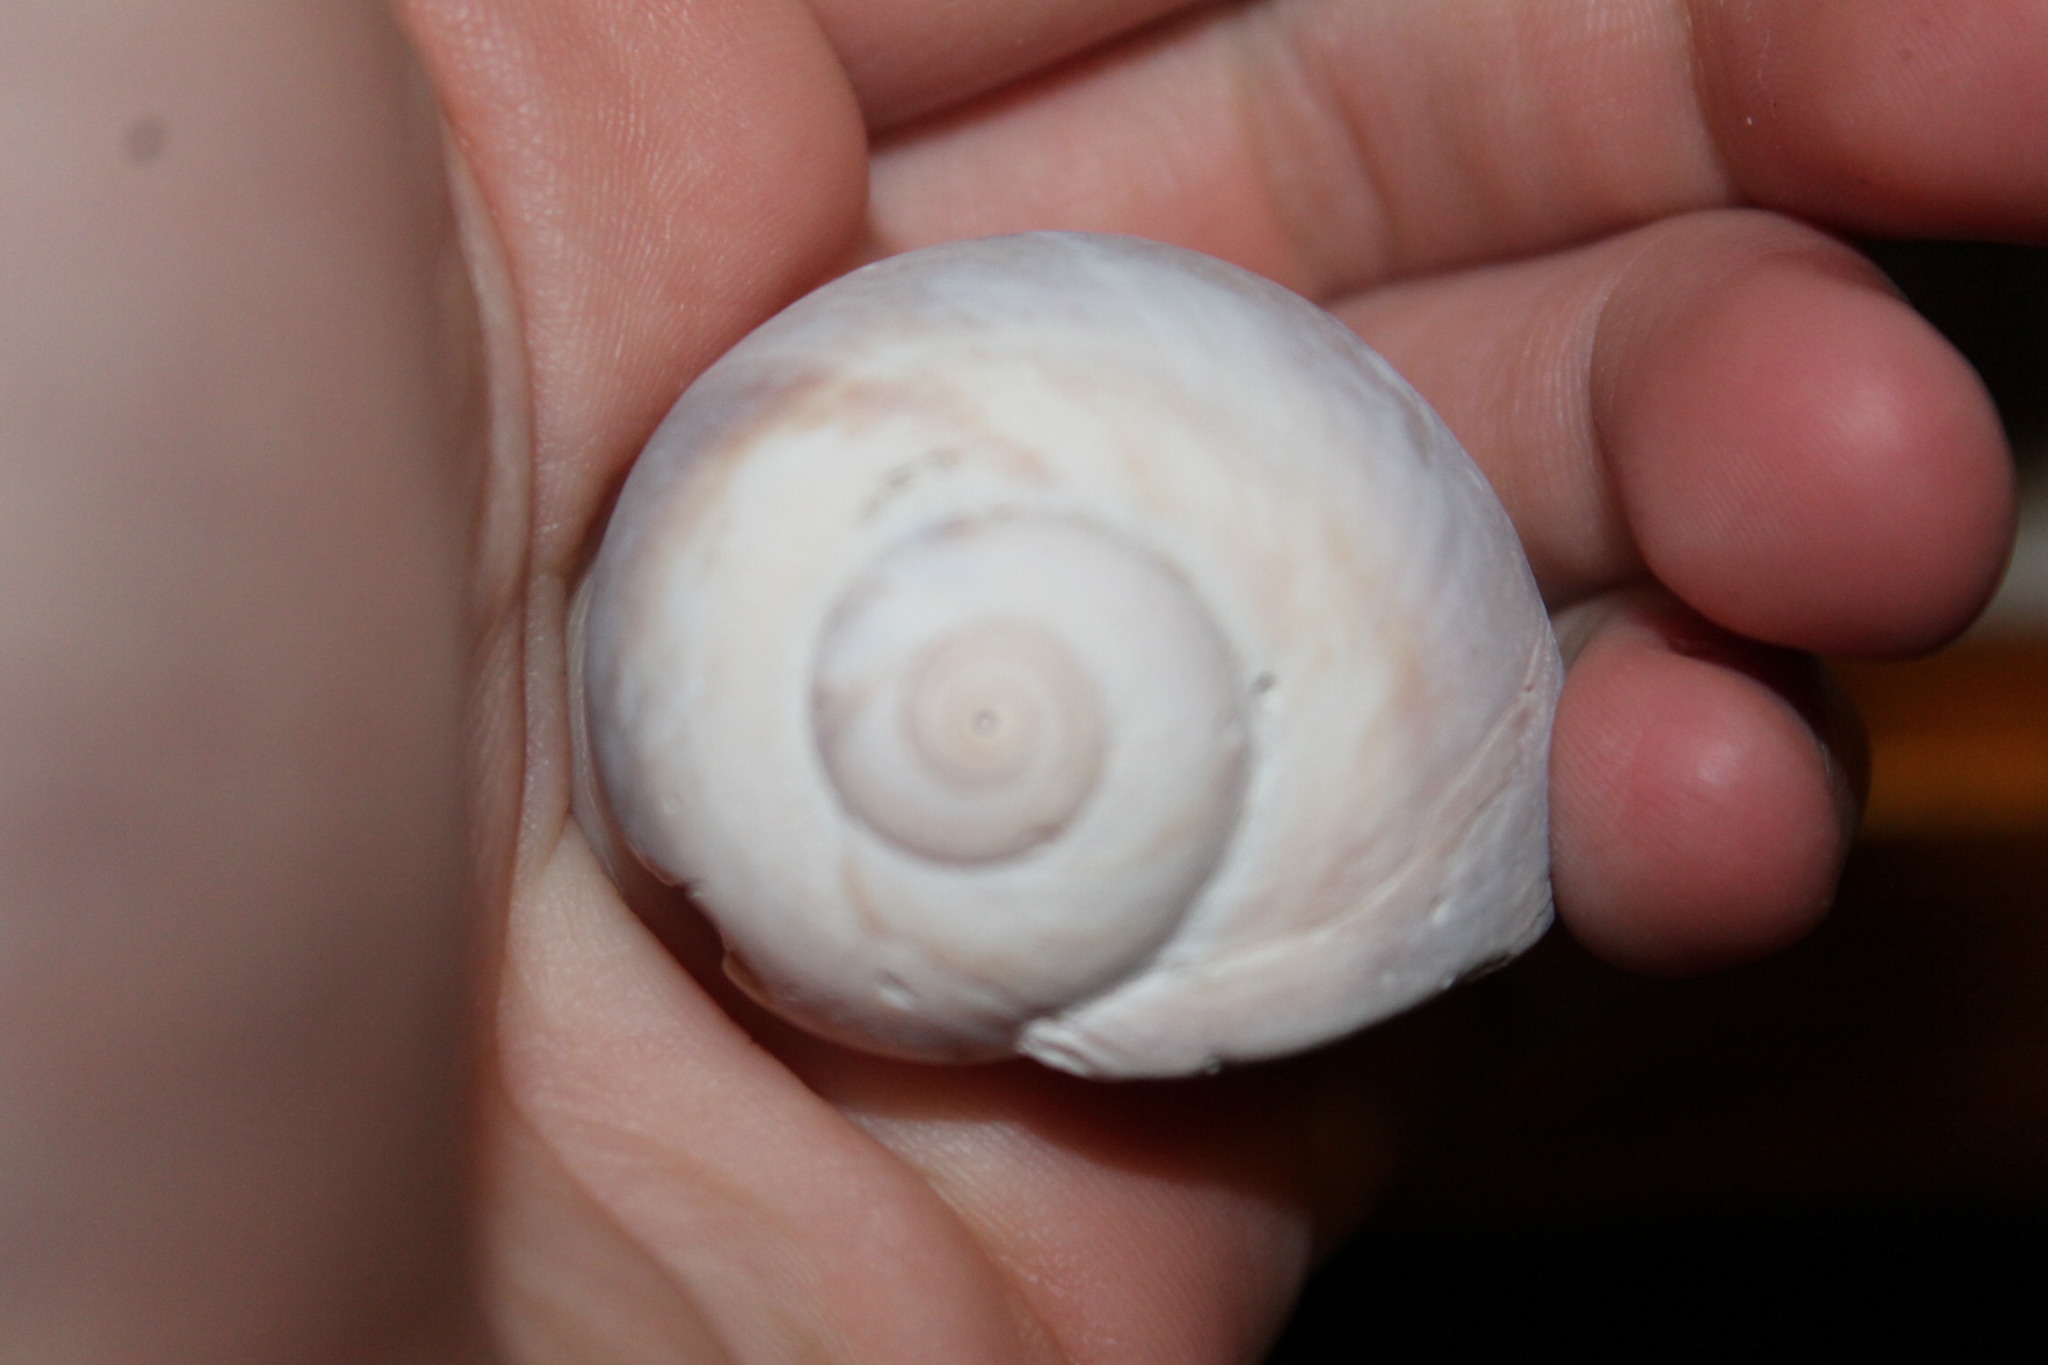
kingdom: Animalia
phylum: Mollusca
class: Gastropoda
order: Littorinimorpha
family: Naticidae
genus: Neverita
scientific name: Neverita duplicata
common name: Lobed moonsnail
